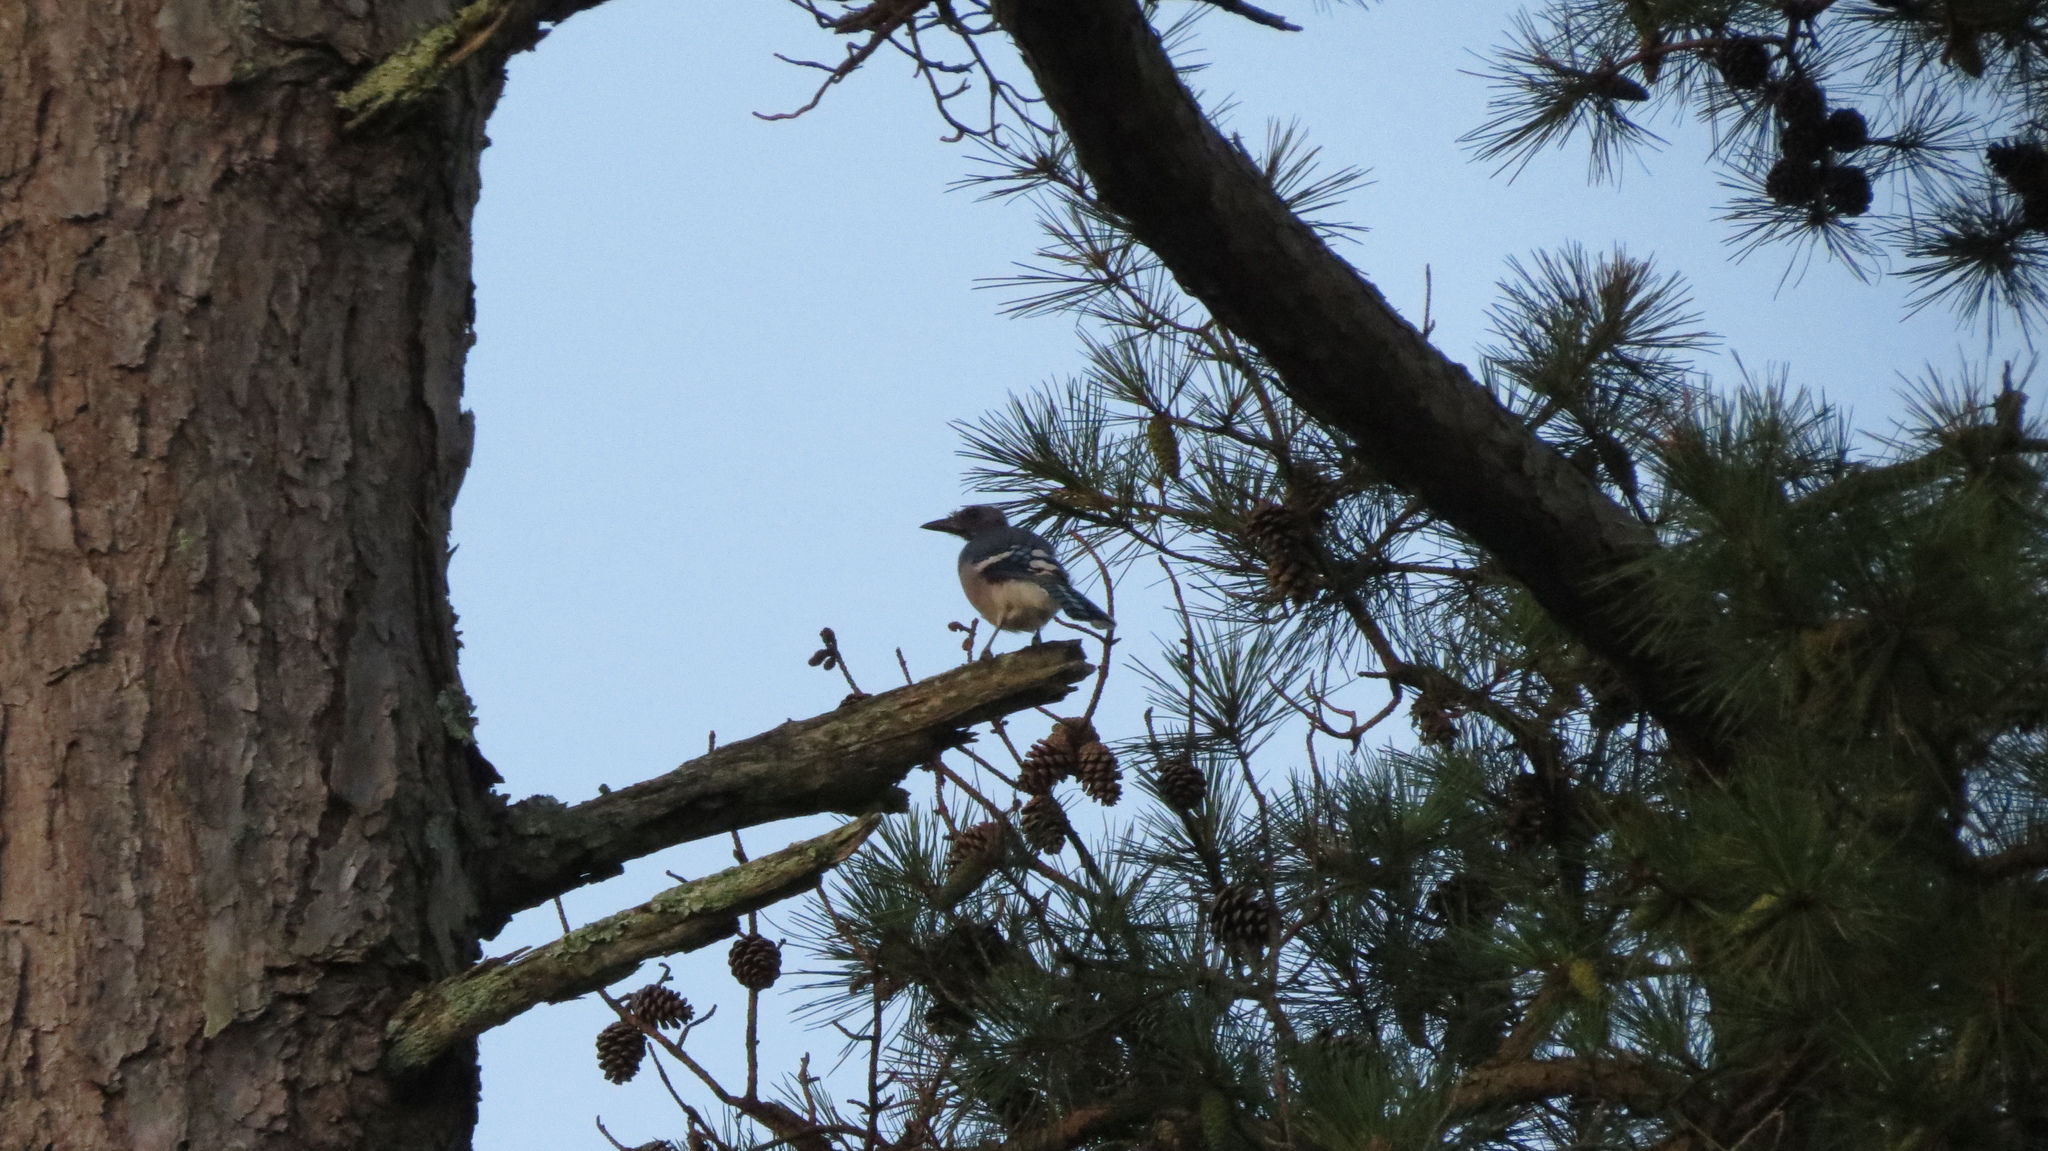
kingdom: Animalia
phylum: Chordata
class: Aves
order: Passeriformes
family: Corvidae
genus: Cyanocitta
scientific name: Cyanocitta cristata
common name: Blue jay
